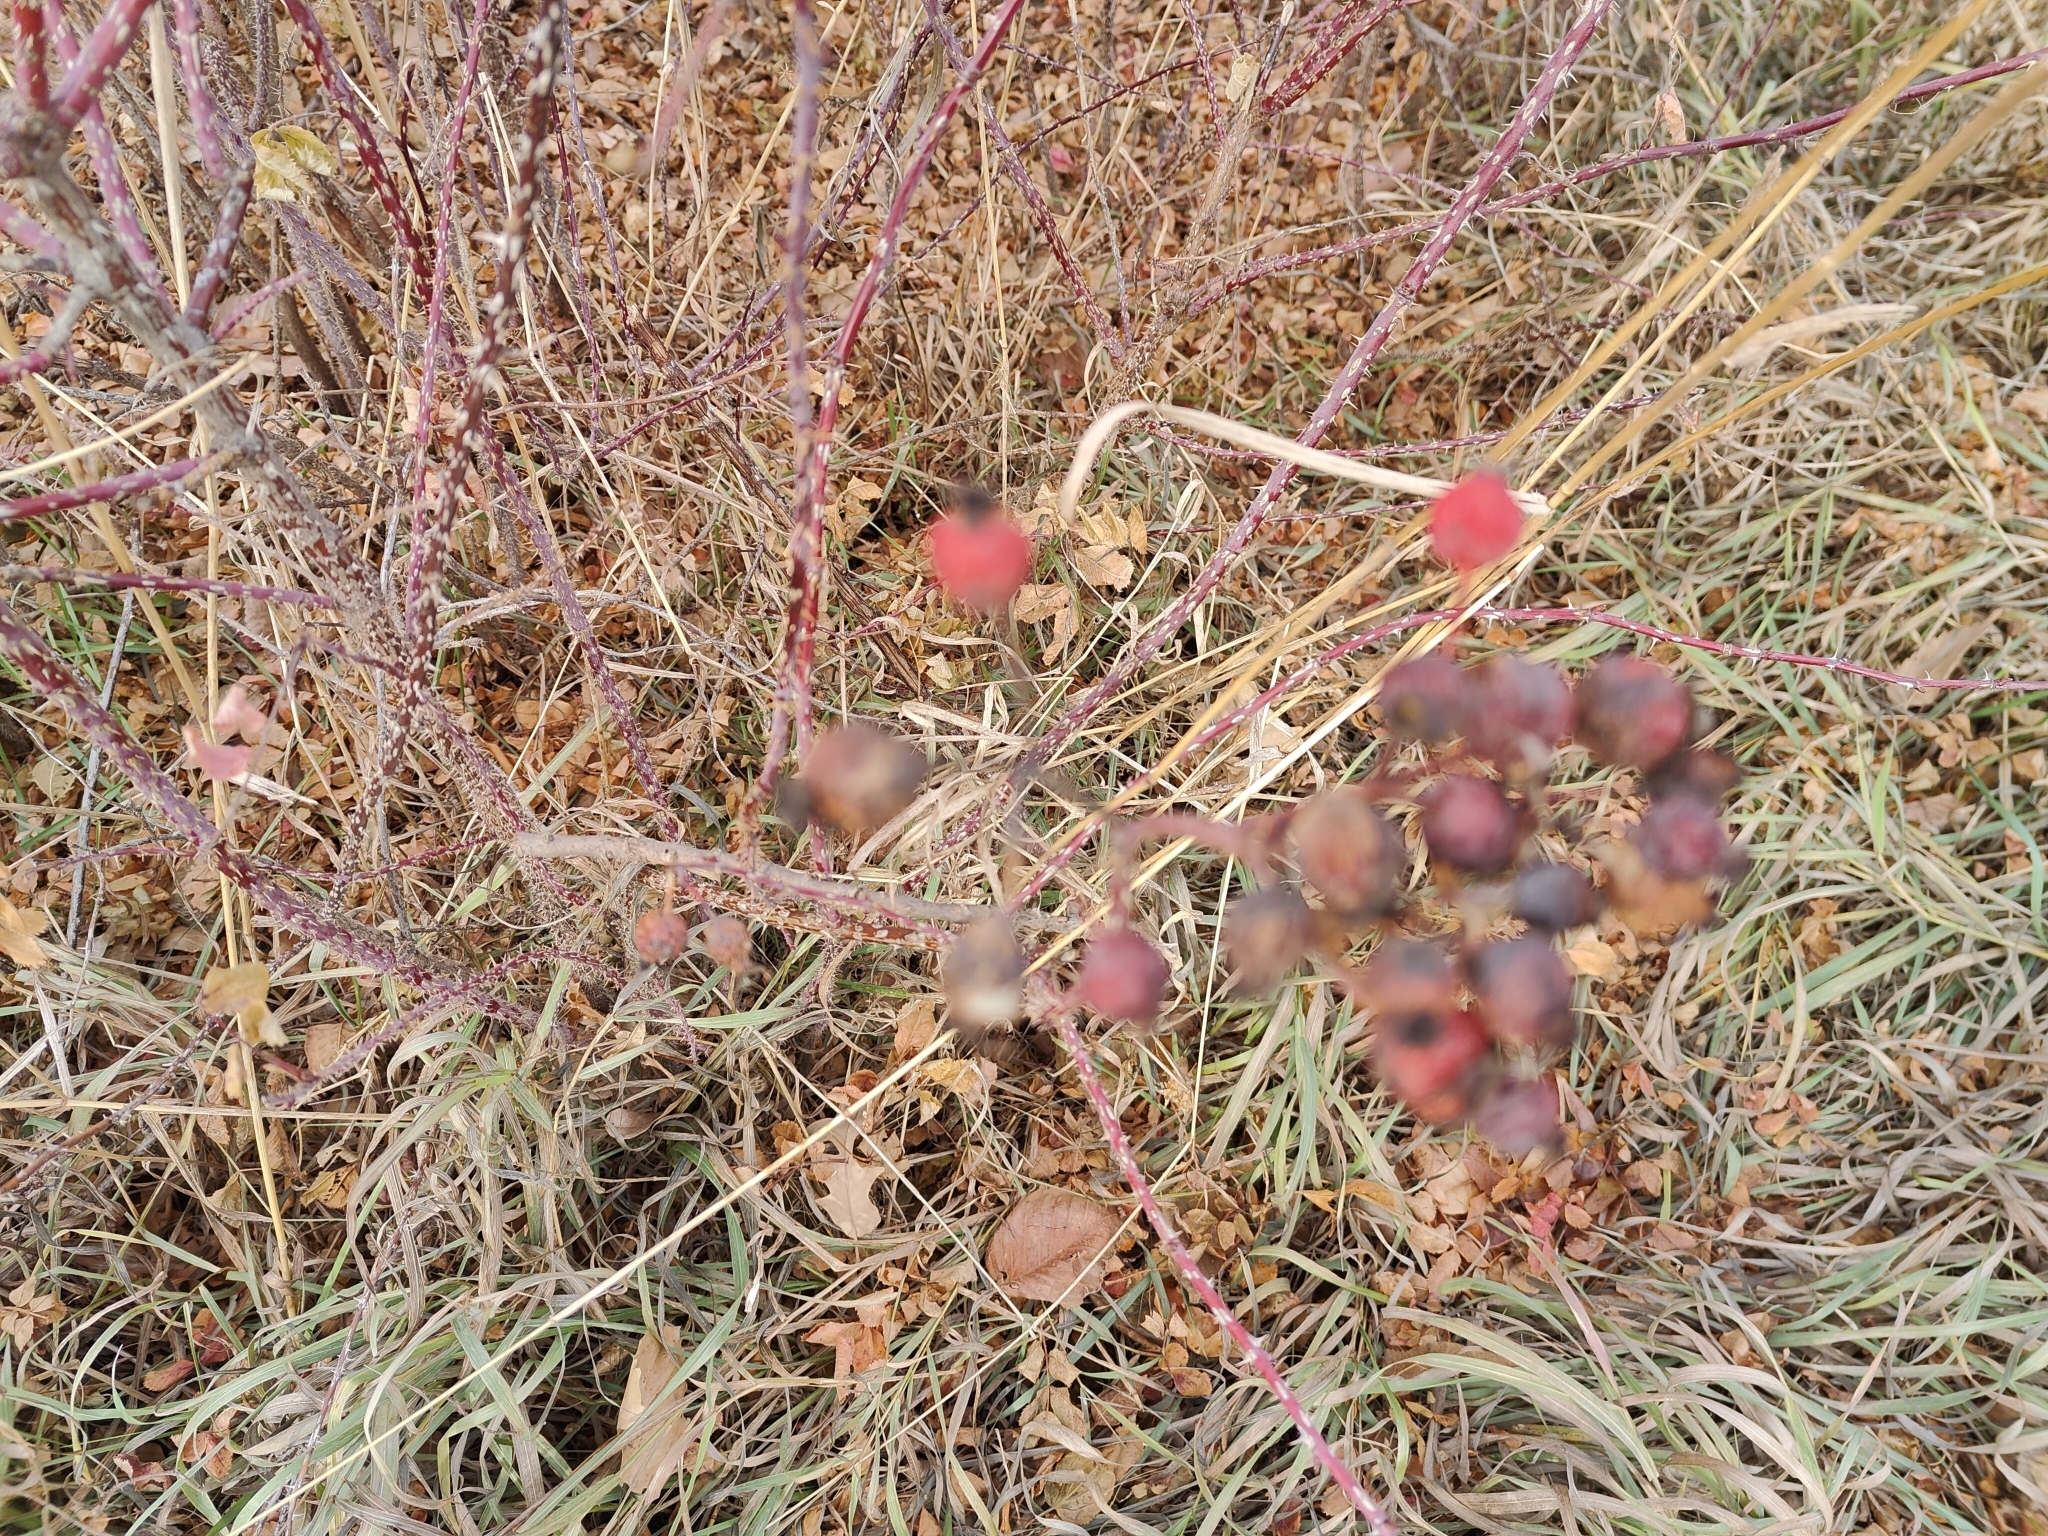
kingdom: Plantae
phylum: Tracheophyta
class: Magnoliopsida
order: Rosales
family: Rosaceae
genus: Rosa
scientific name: Rosa woodsii
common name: Woods's rose
